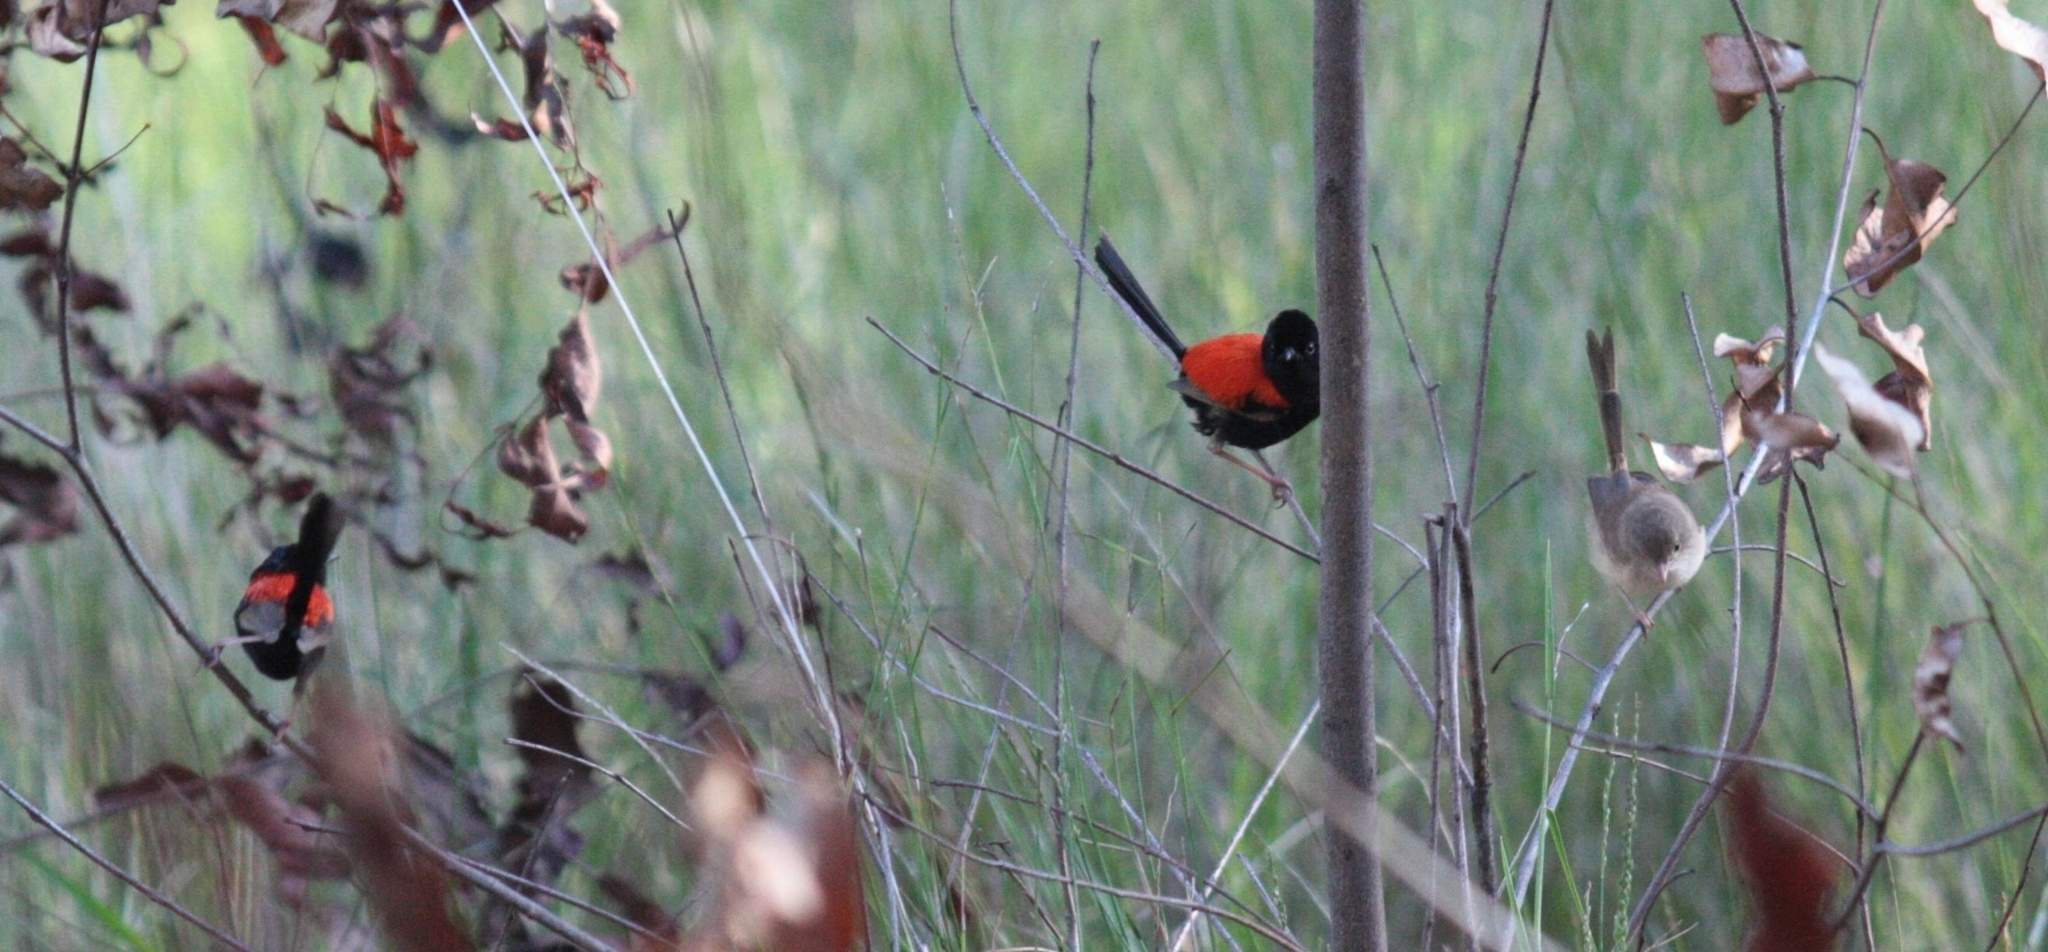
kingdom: Animalia
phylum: Chordata
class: Aves
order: Passeriformes
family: Maluridae
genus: Malurus
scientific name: Malurus melanocephalus
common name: Red-backed fairywren
